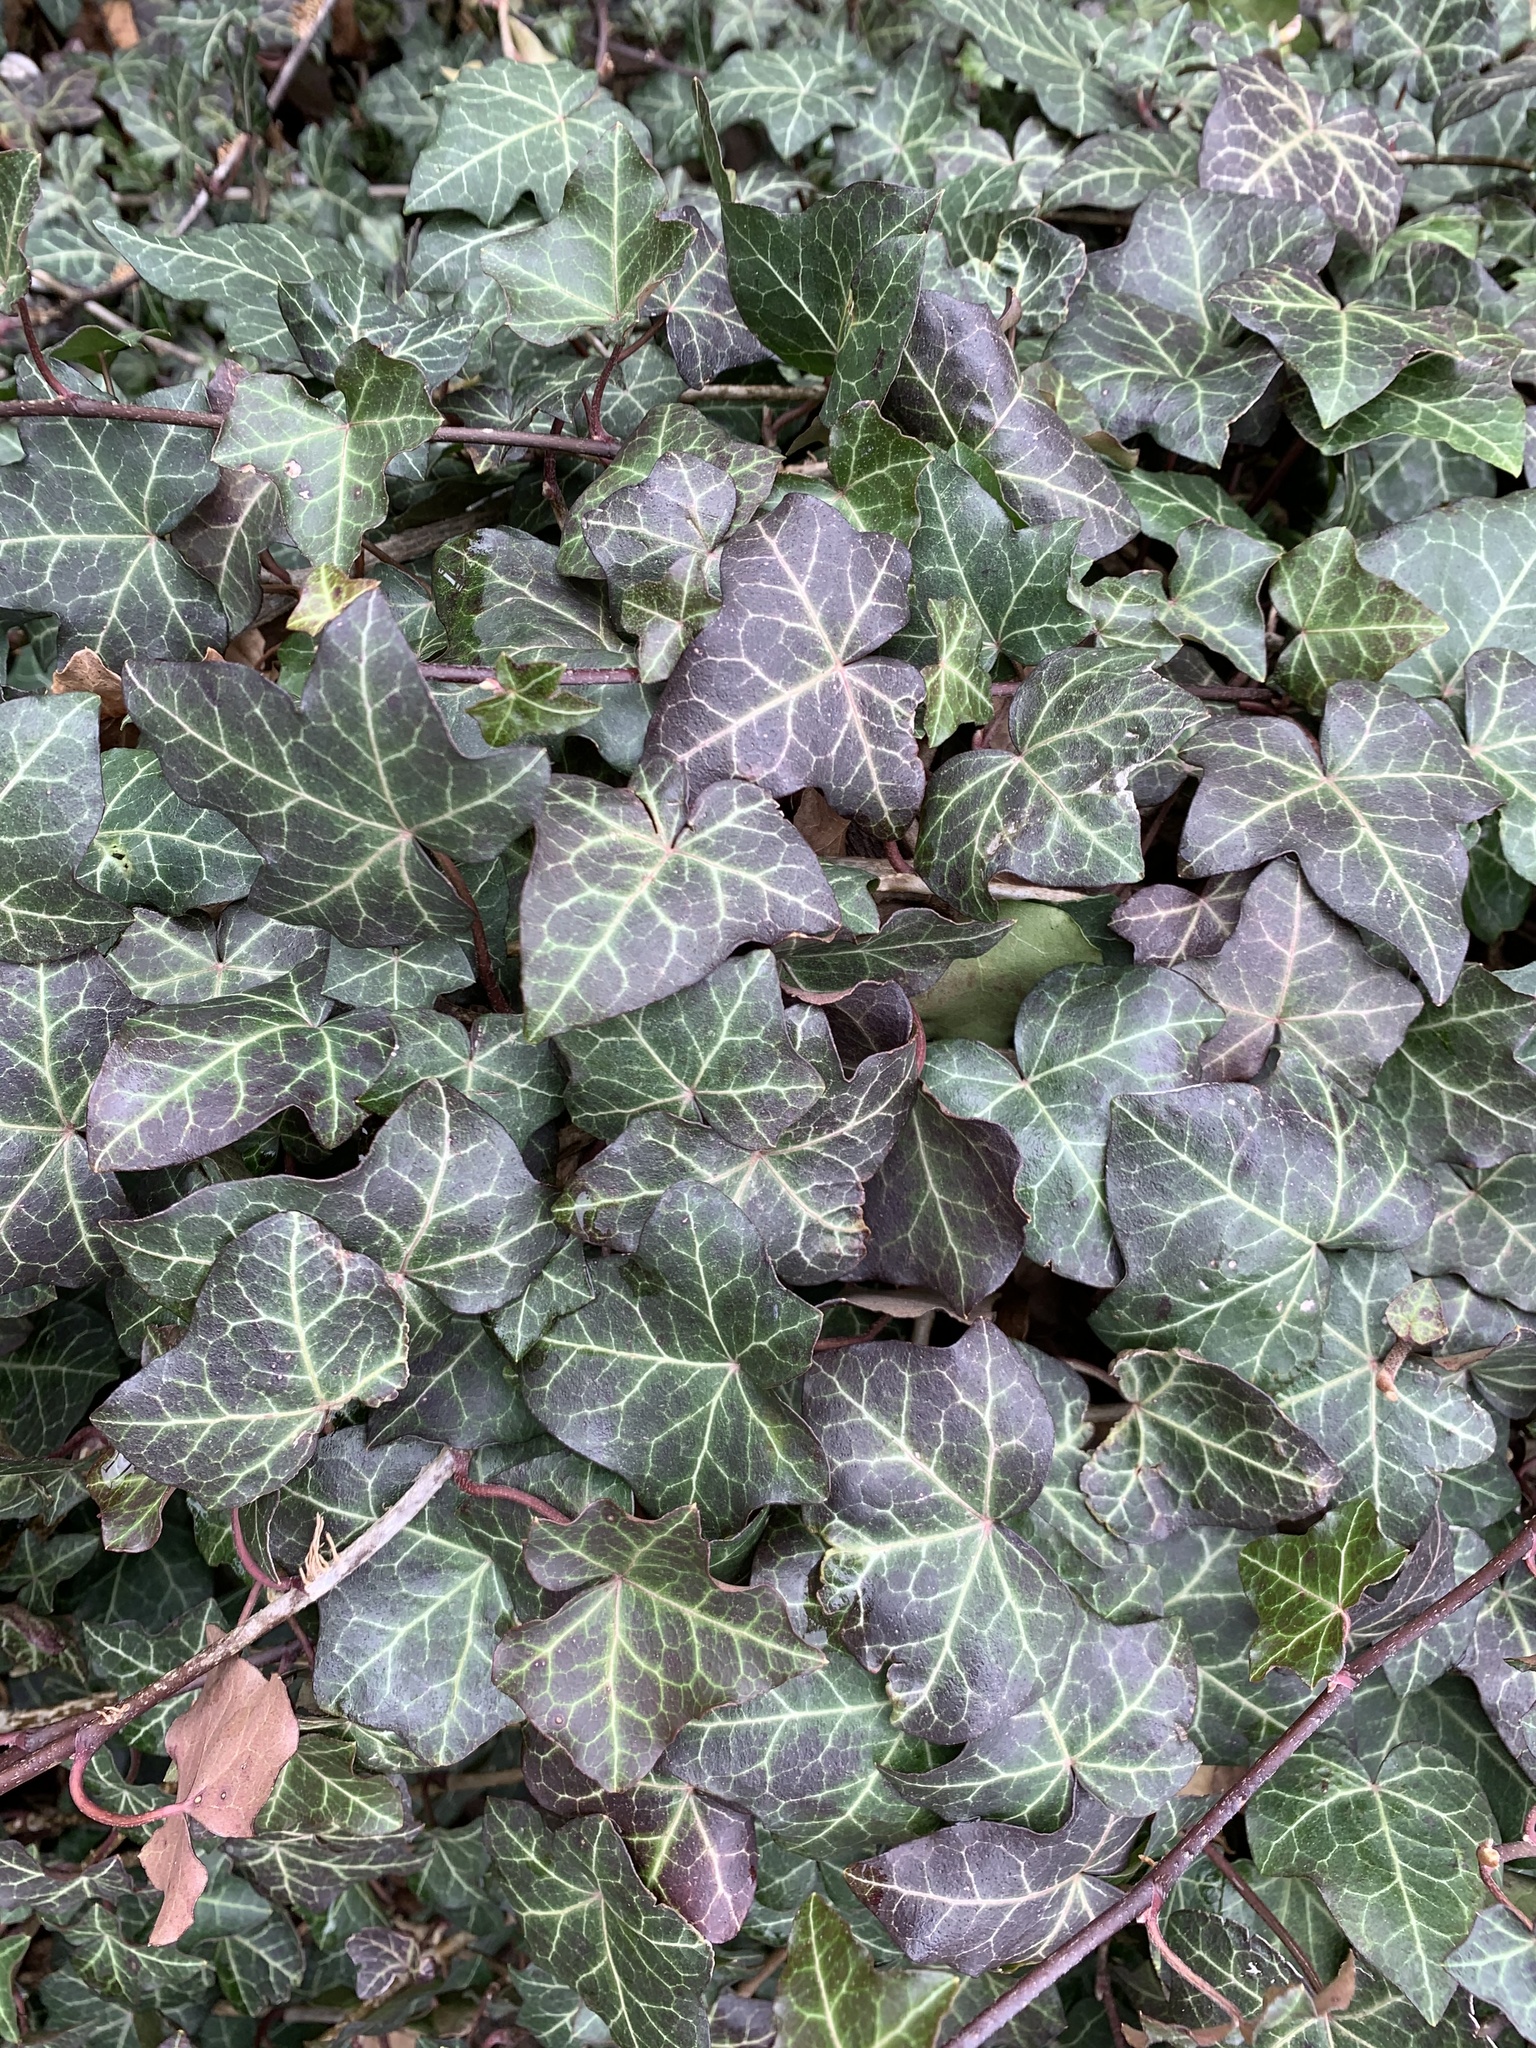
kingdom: Plantae
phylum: Tracheophyta
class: Magnoliopsida
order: Apiales
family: Araliaceae
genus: Hedera
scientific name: Hedera helix
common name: Ivy
